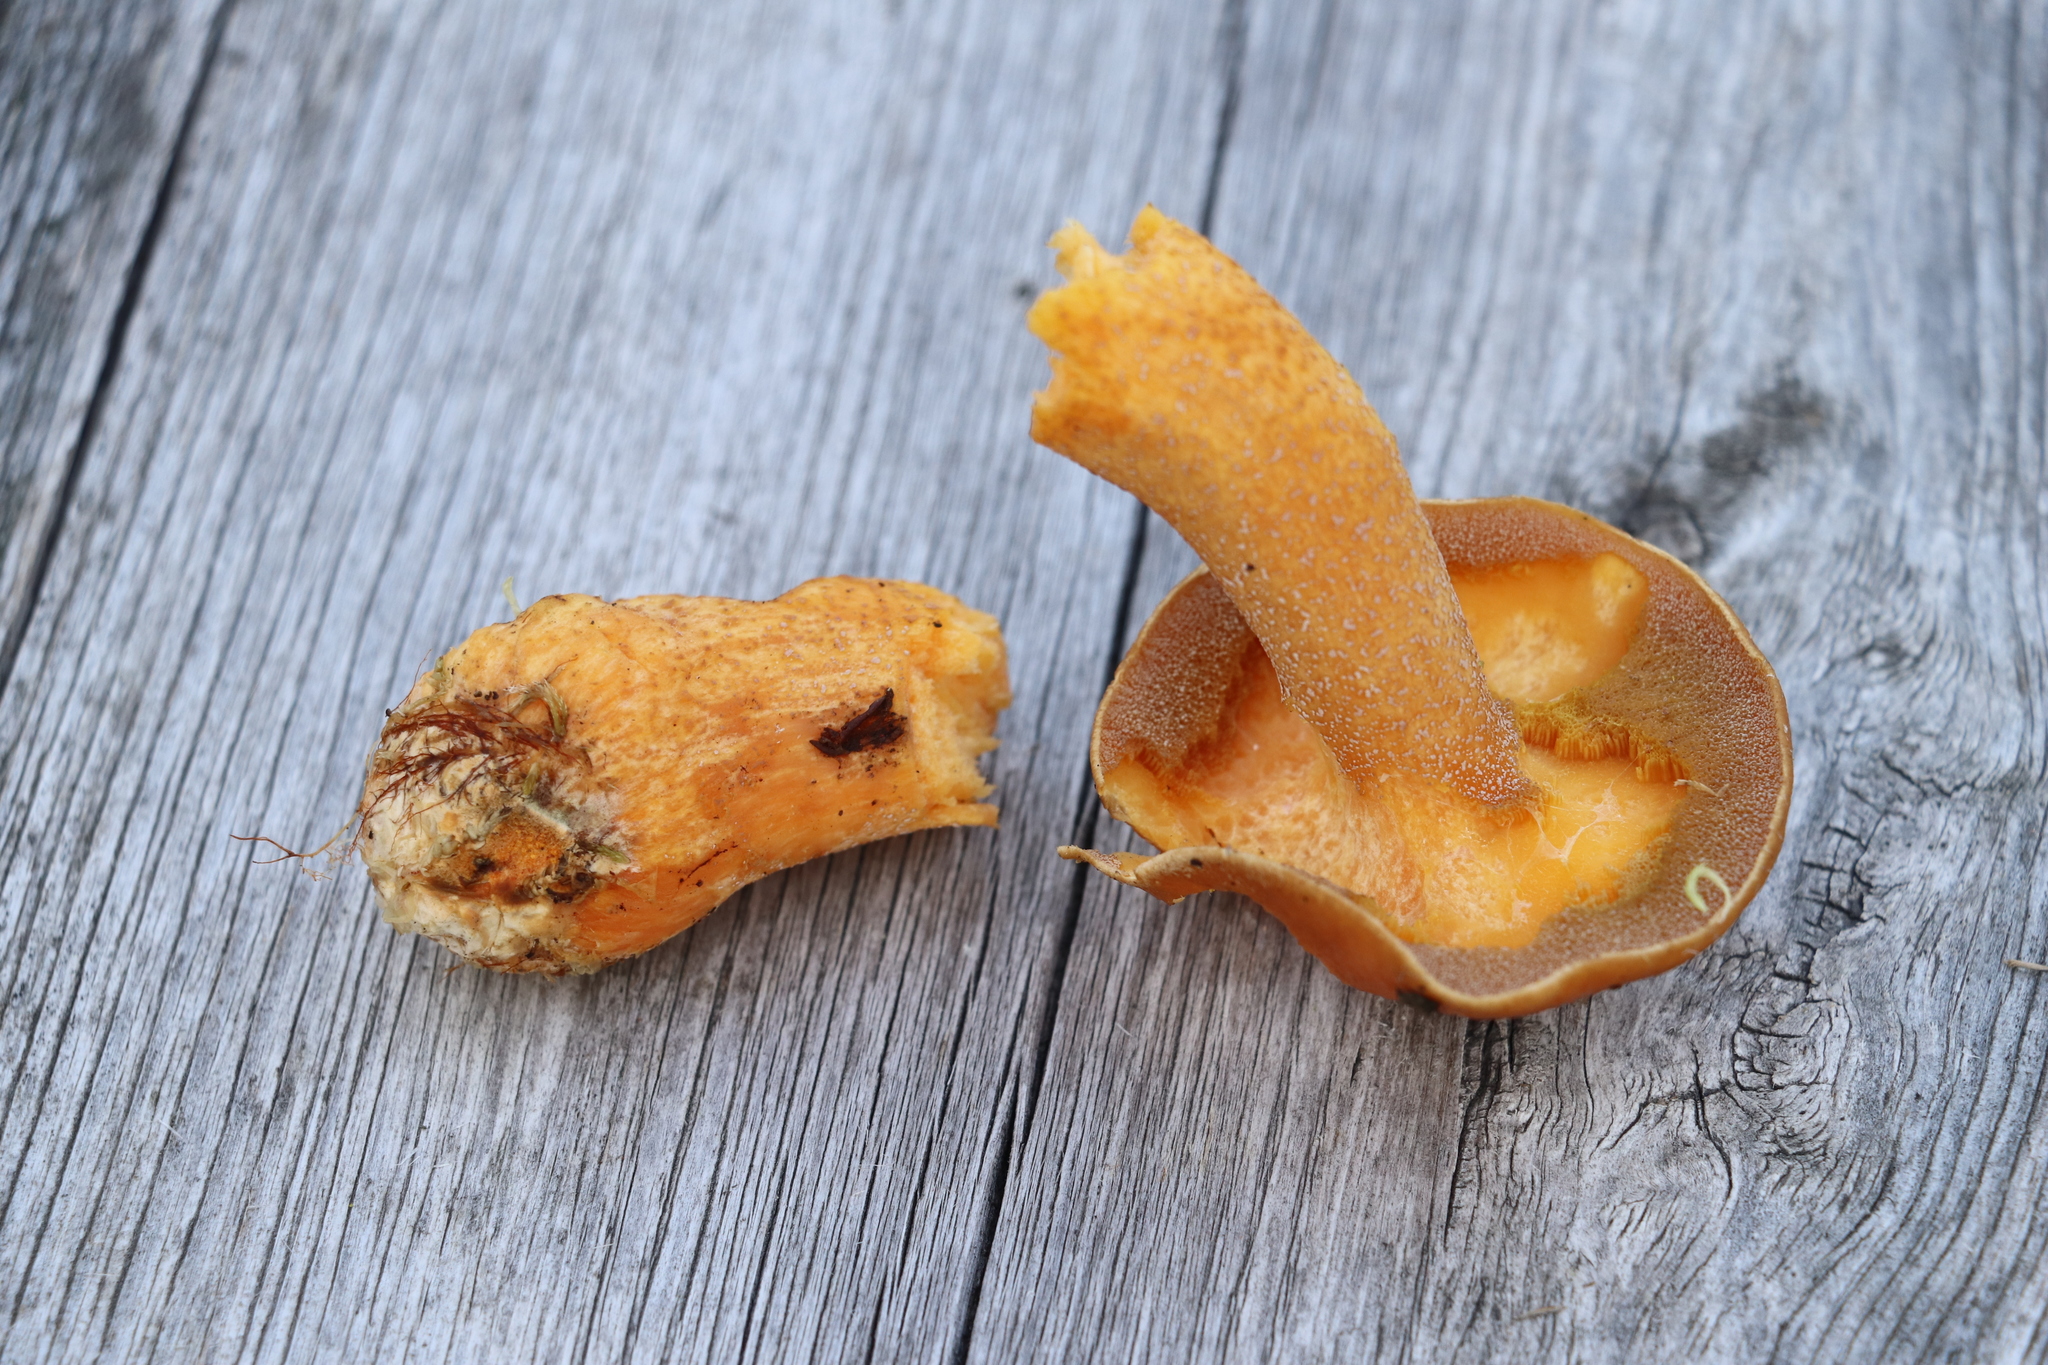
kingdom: Fungi
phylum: Basidiomycota
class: Agaricomycetes
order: Boletales
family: Suillaceae
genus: Suillus
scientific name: Suillus variegatus
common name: Velvet bolete
